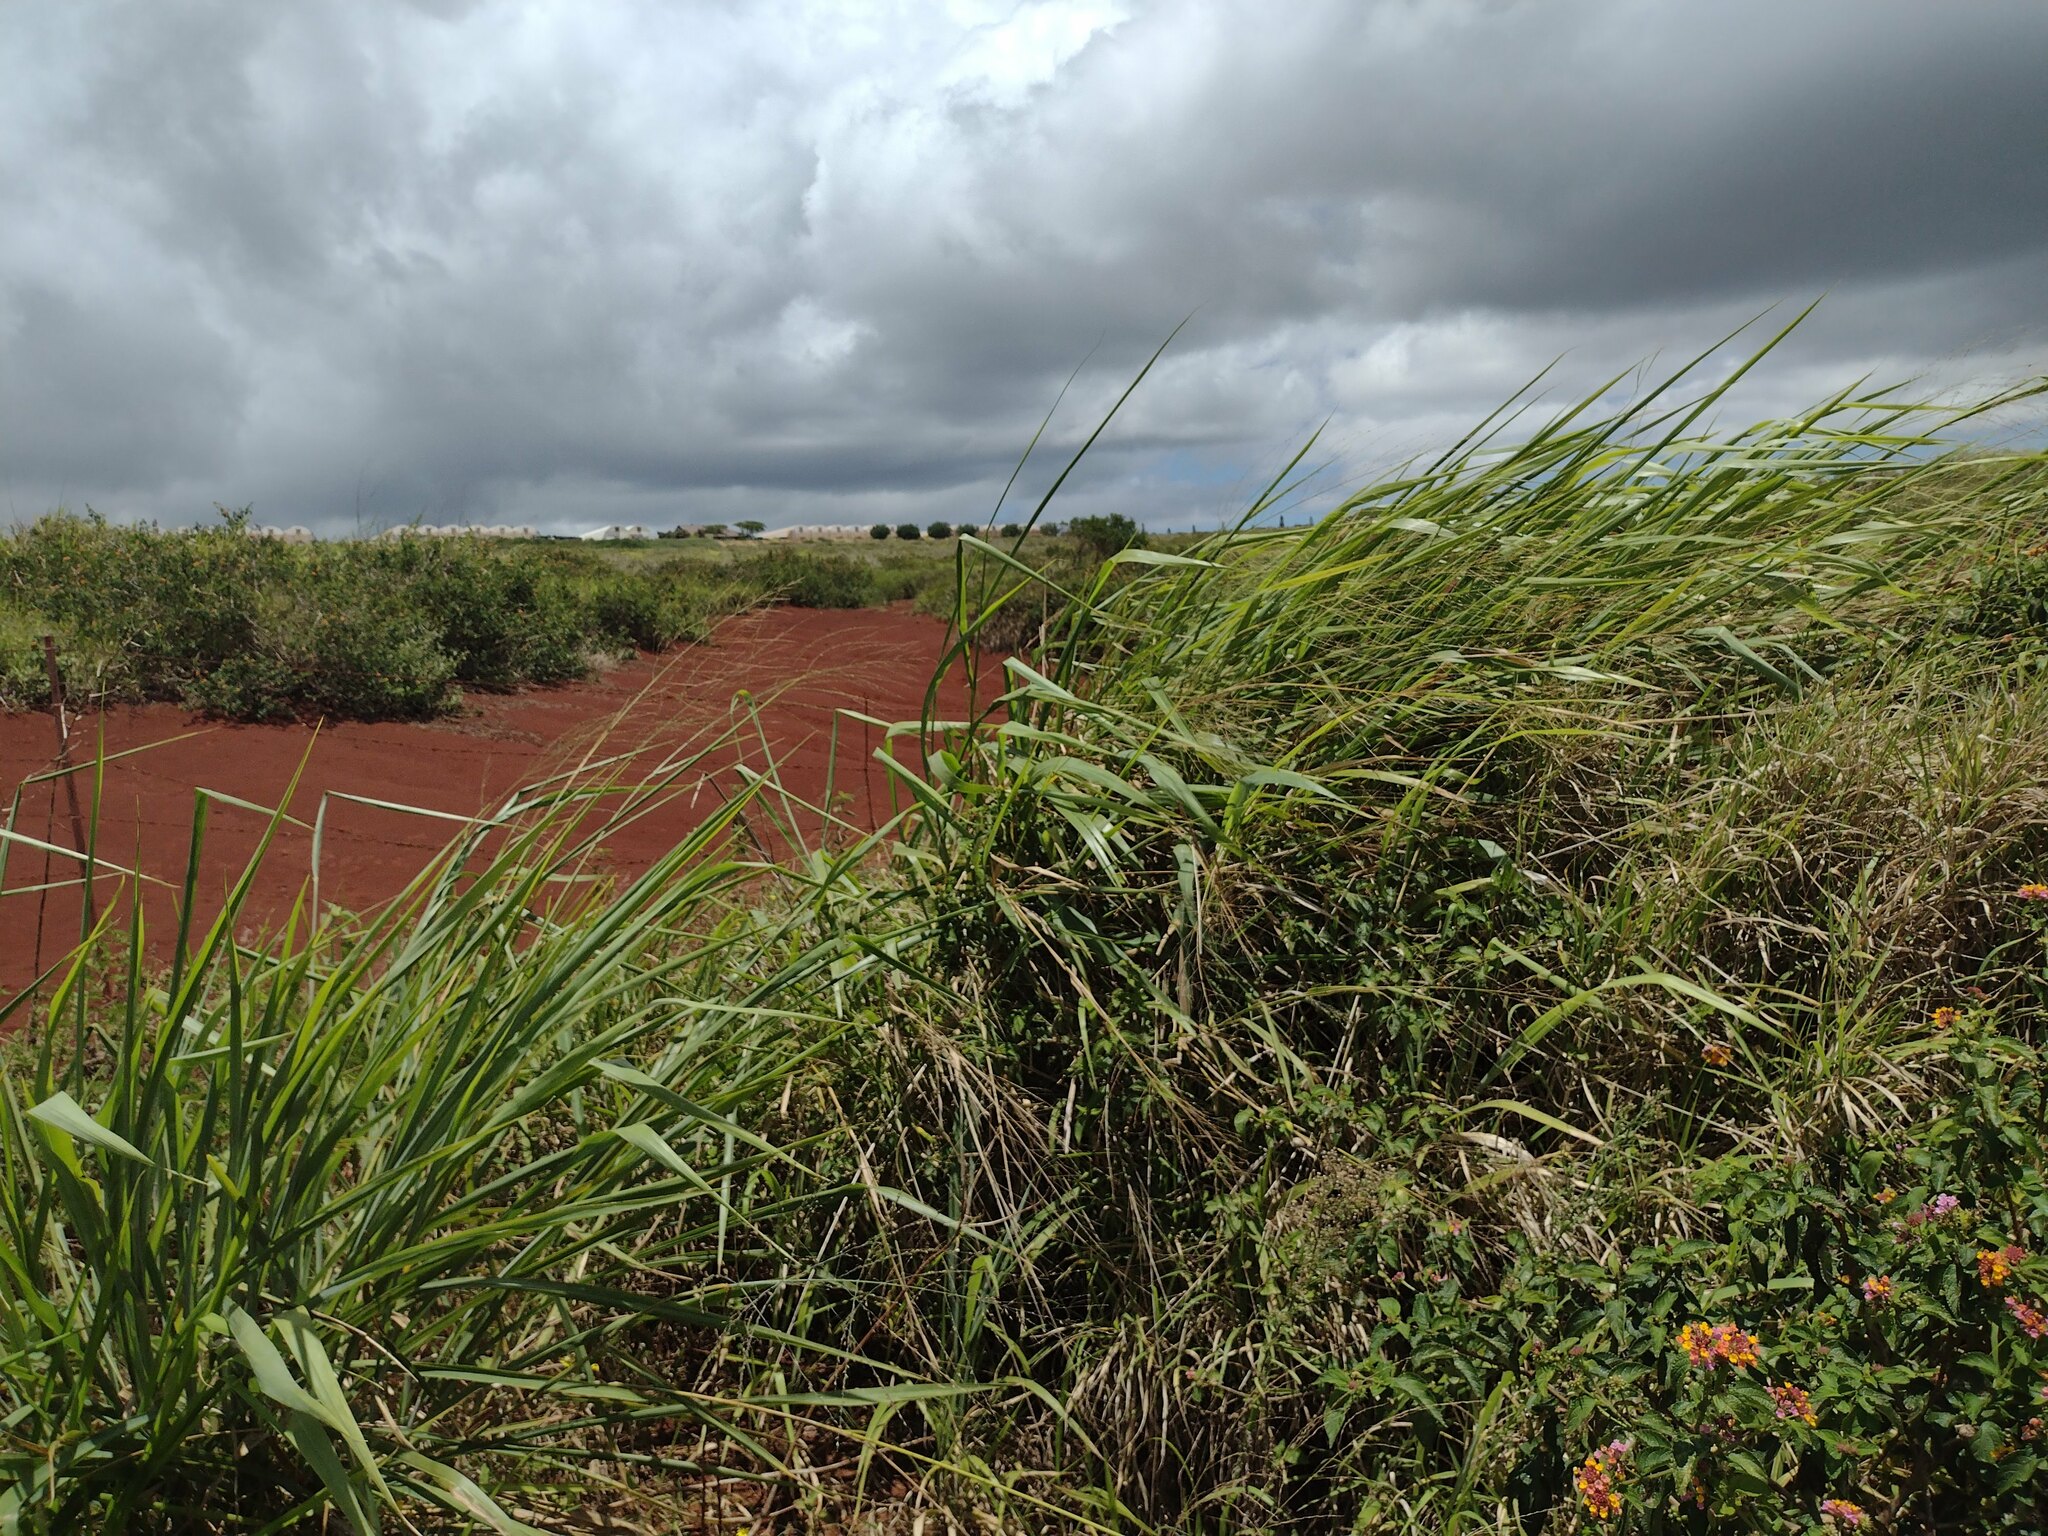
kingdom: Plantae
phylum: Tracheophyta
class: Liliopsida
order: Poales
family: Poaceae
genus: Megathyrsus
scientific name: Megathyrsus maximus
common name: Guineagrass
